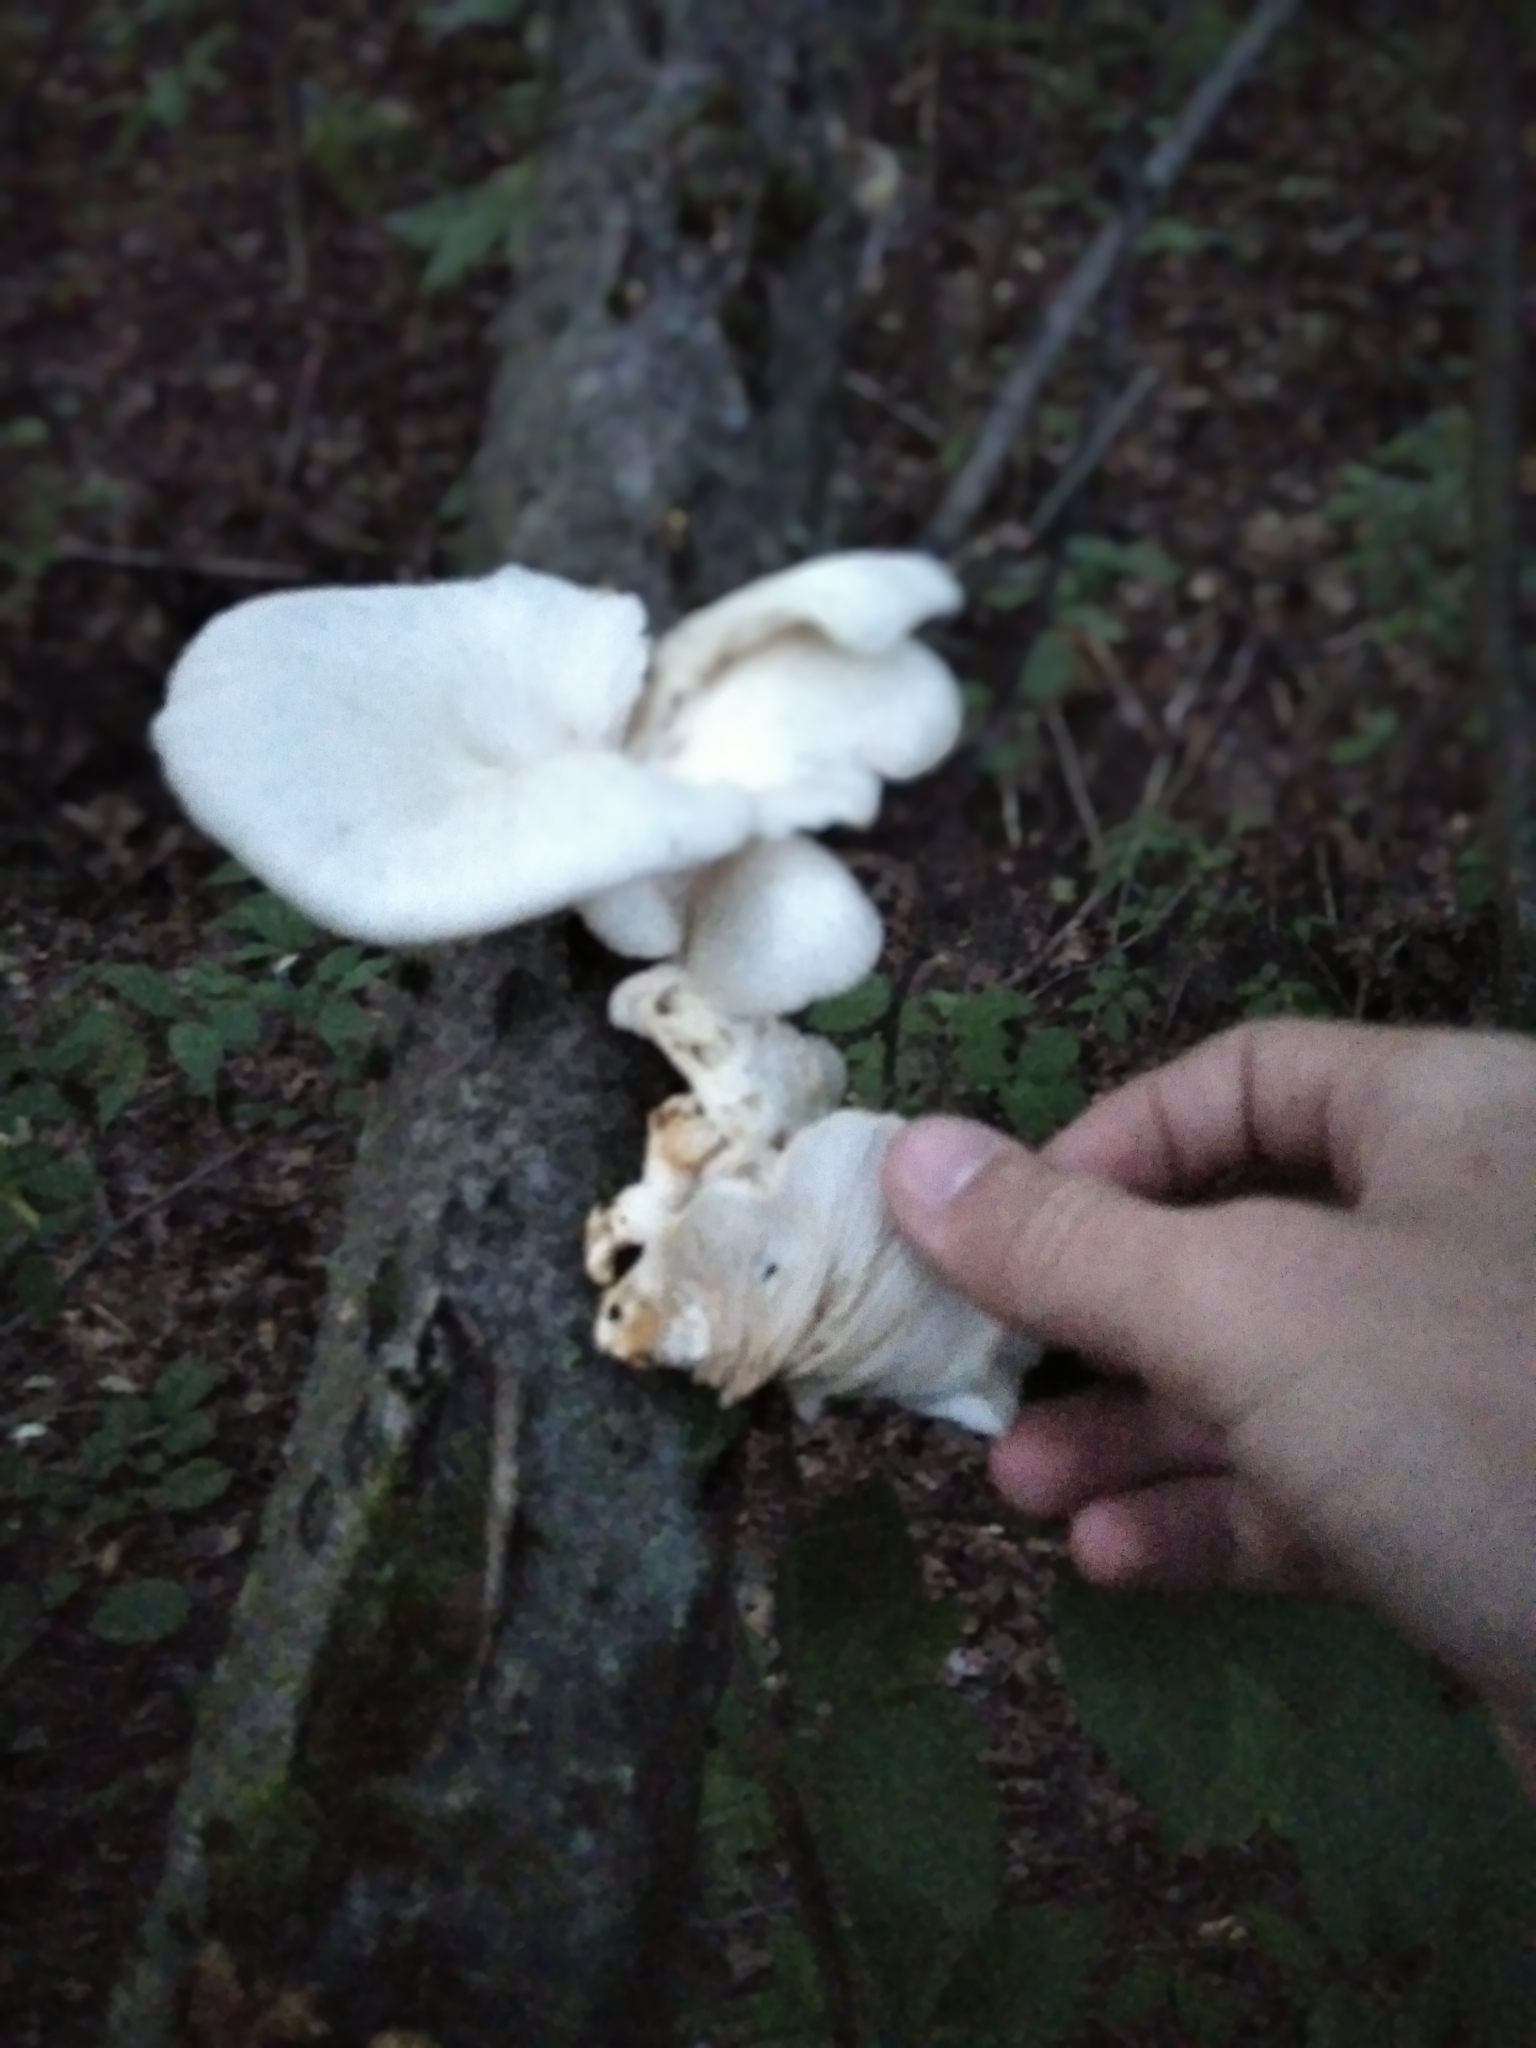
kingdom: Fungi
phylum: Basidiomycota
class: Agaricomycetes
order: Agaricales
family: Pleurotaceae
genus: Pleurotus
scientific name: Pleurotus pulmonarius
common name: Pale oyster
